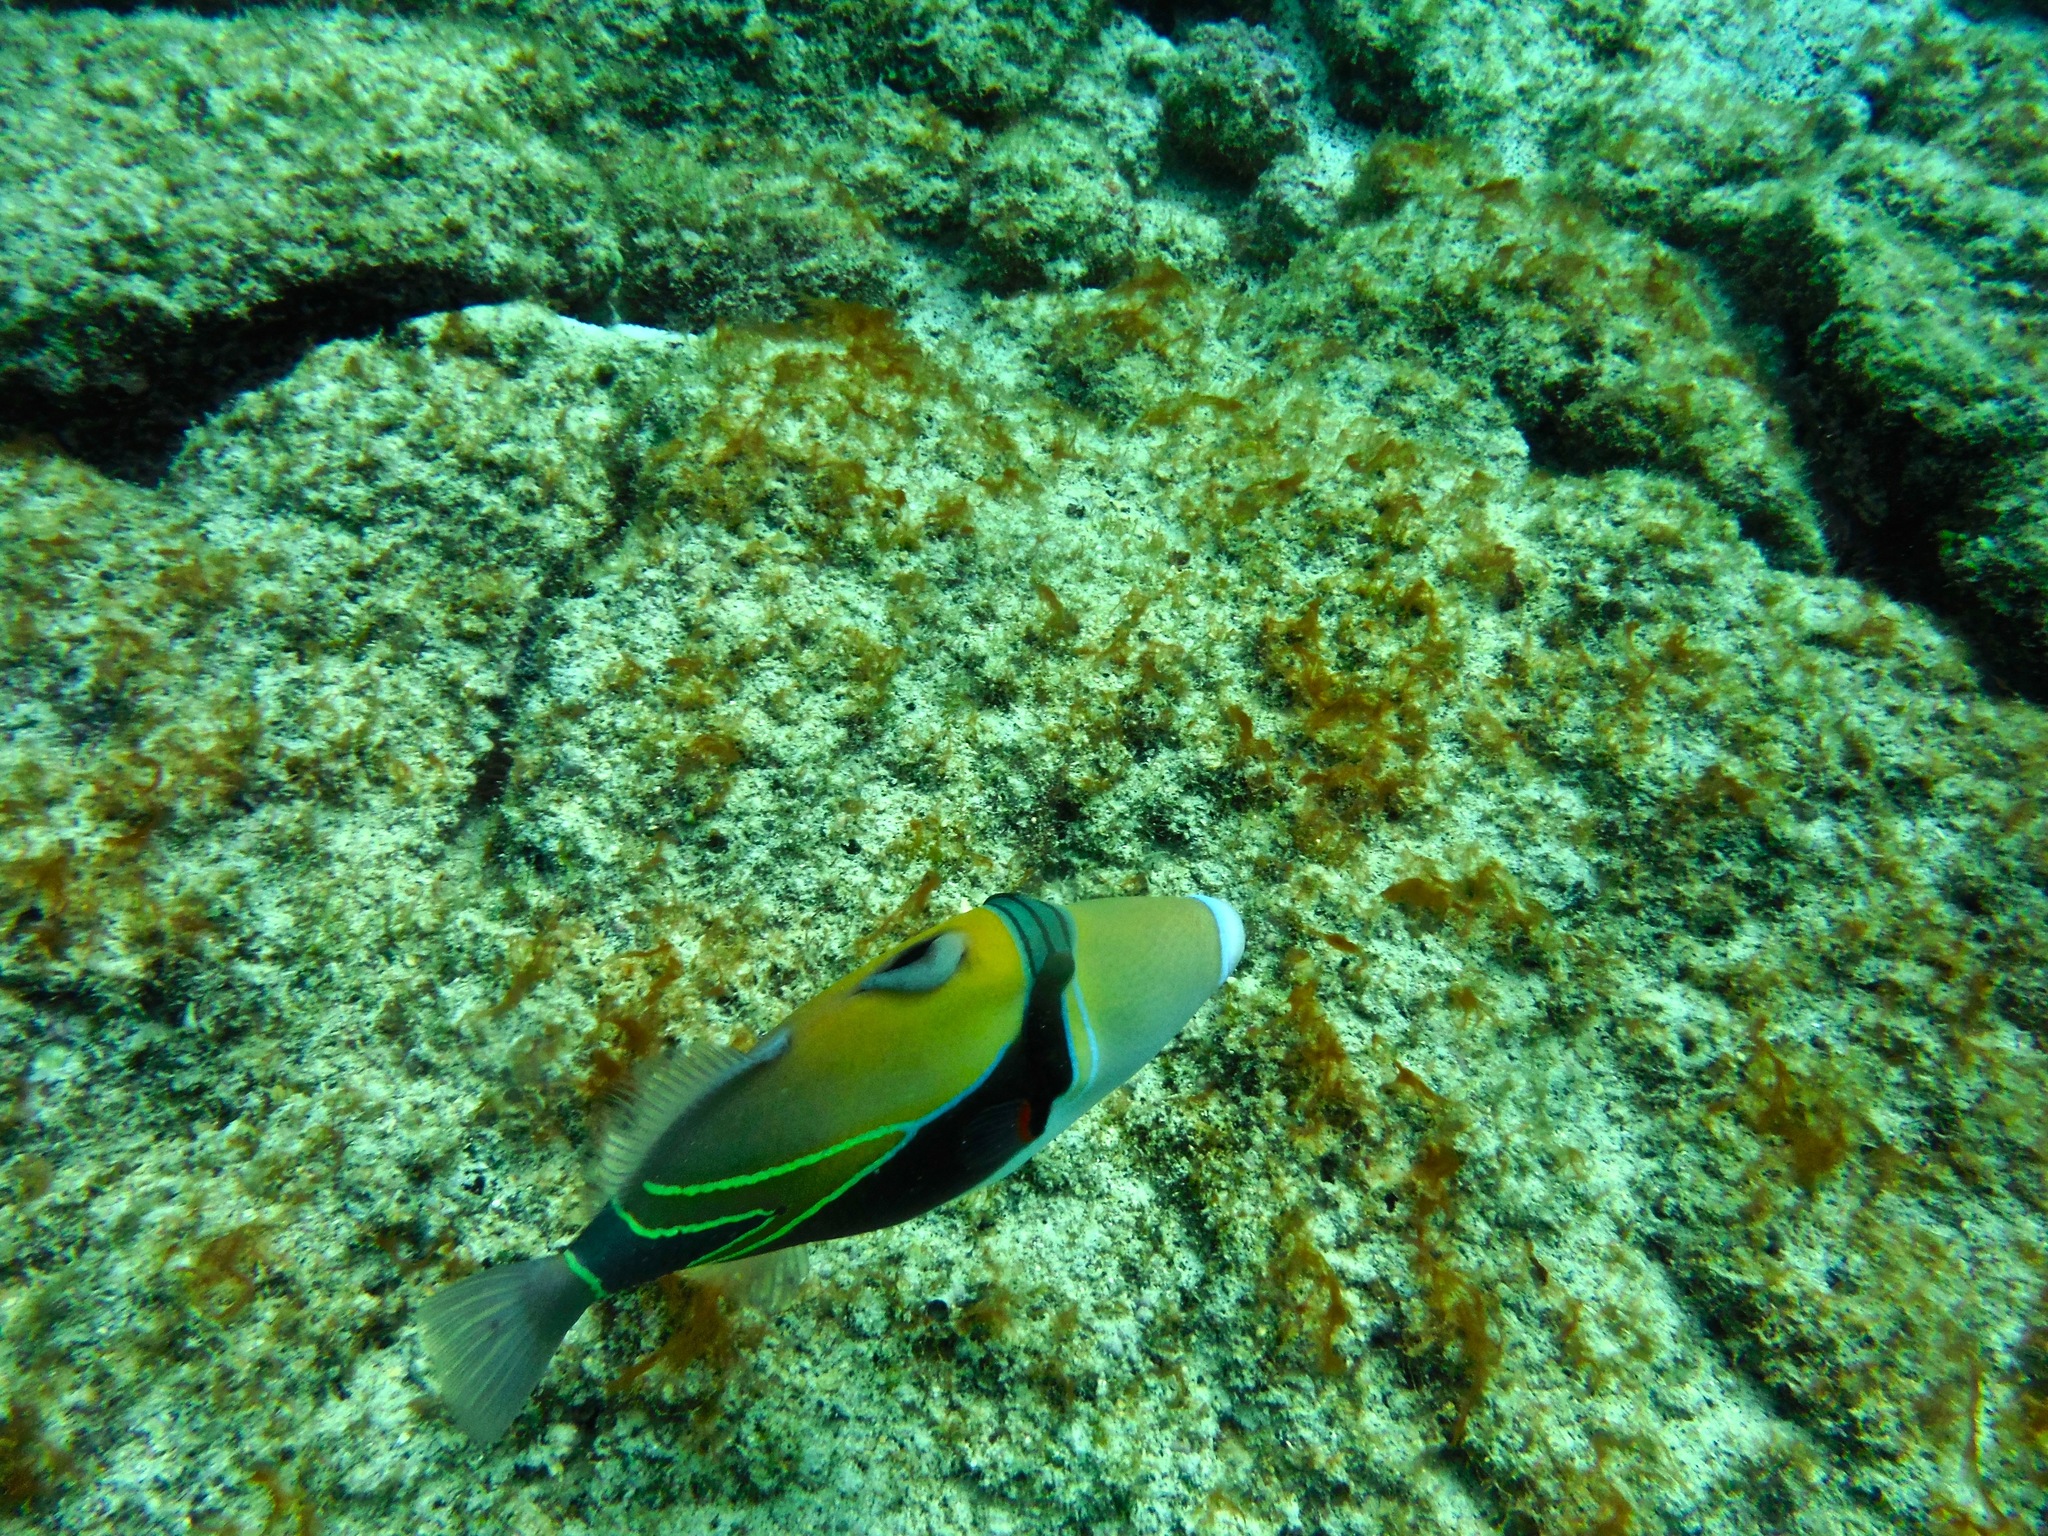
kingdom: Animalia
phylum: Chordata
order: Tetraodontiformes
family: Balistidae
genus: Rhinecanthus
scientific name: Rhinecanthus rectangulus
